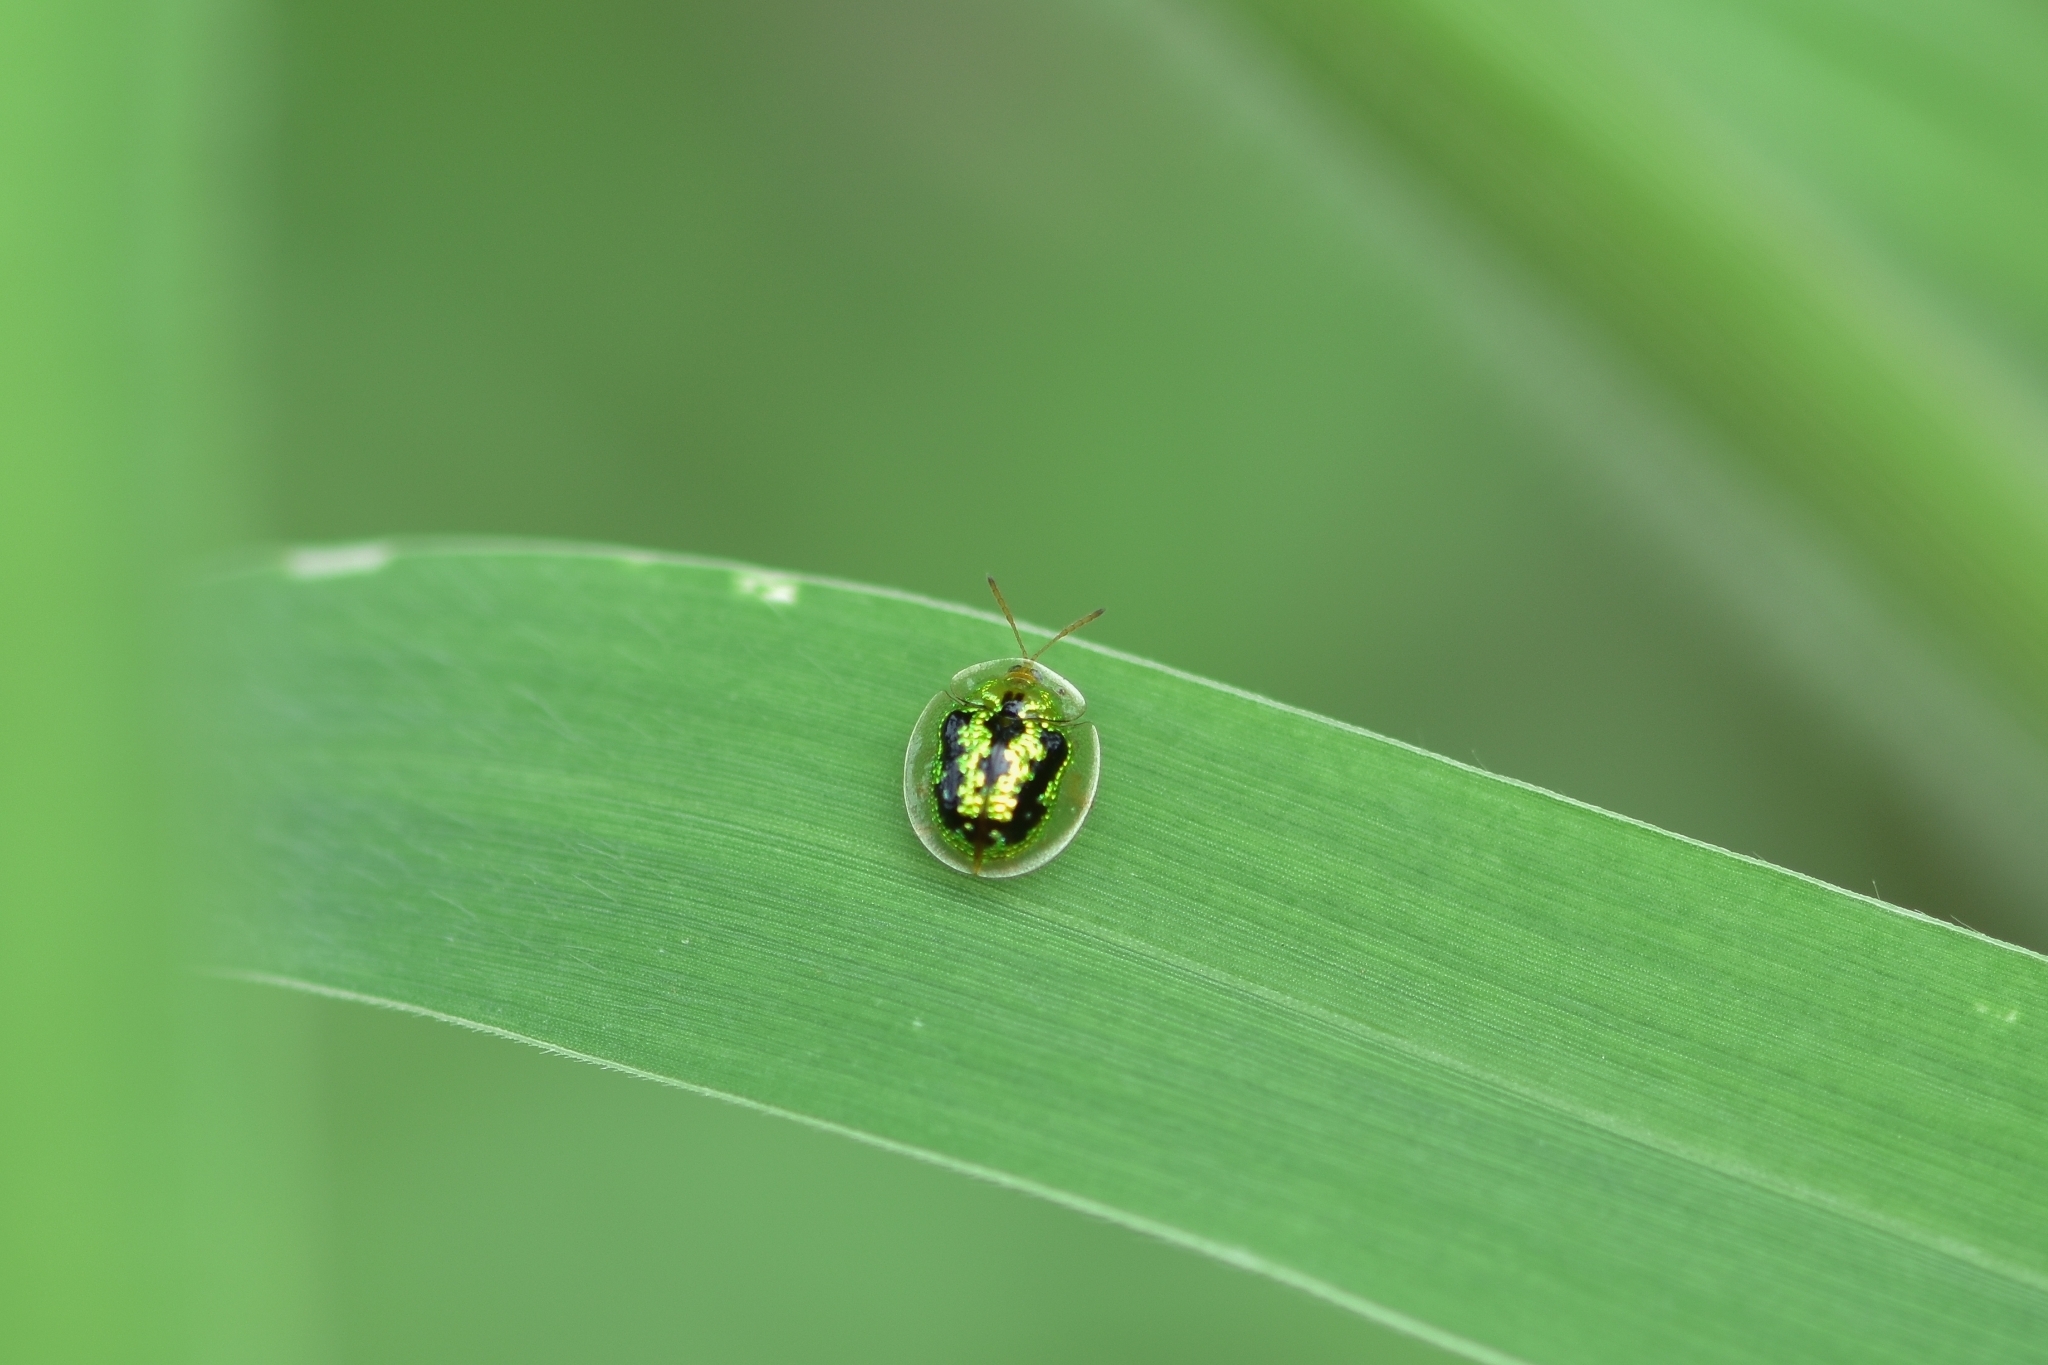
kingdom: Animalia
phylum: Arthropoda
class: Insecta
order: Coleoptera
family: Chrysomelidae
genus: Cassida
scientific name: Cassida circumdata
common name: Tortoise beetle
